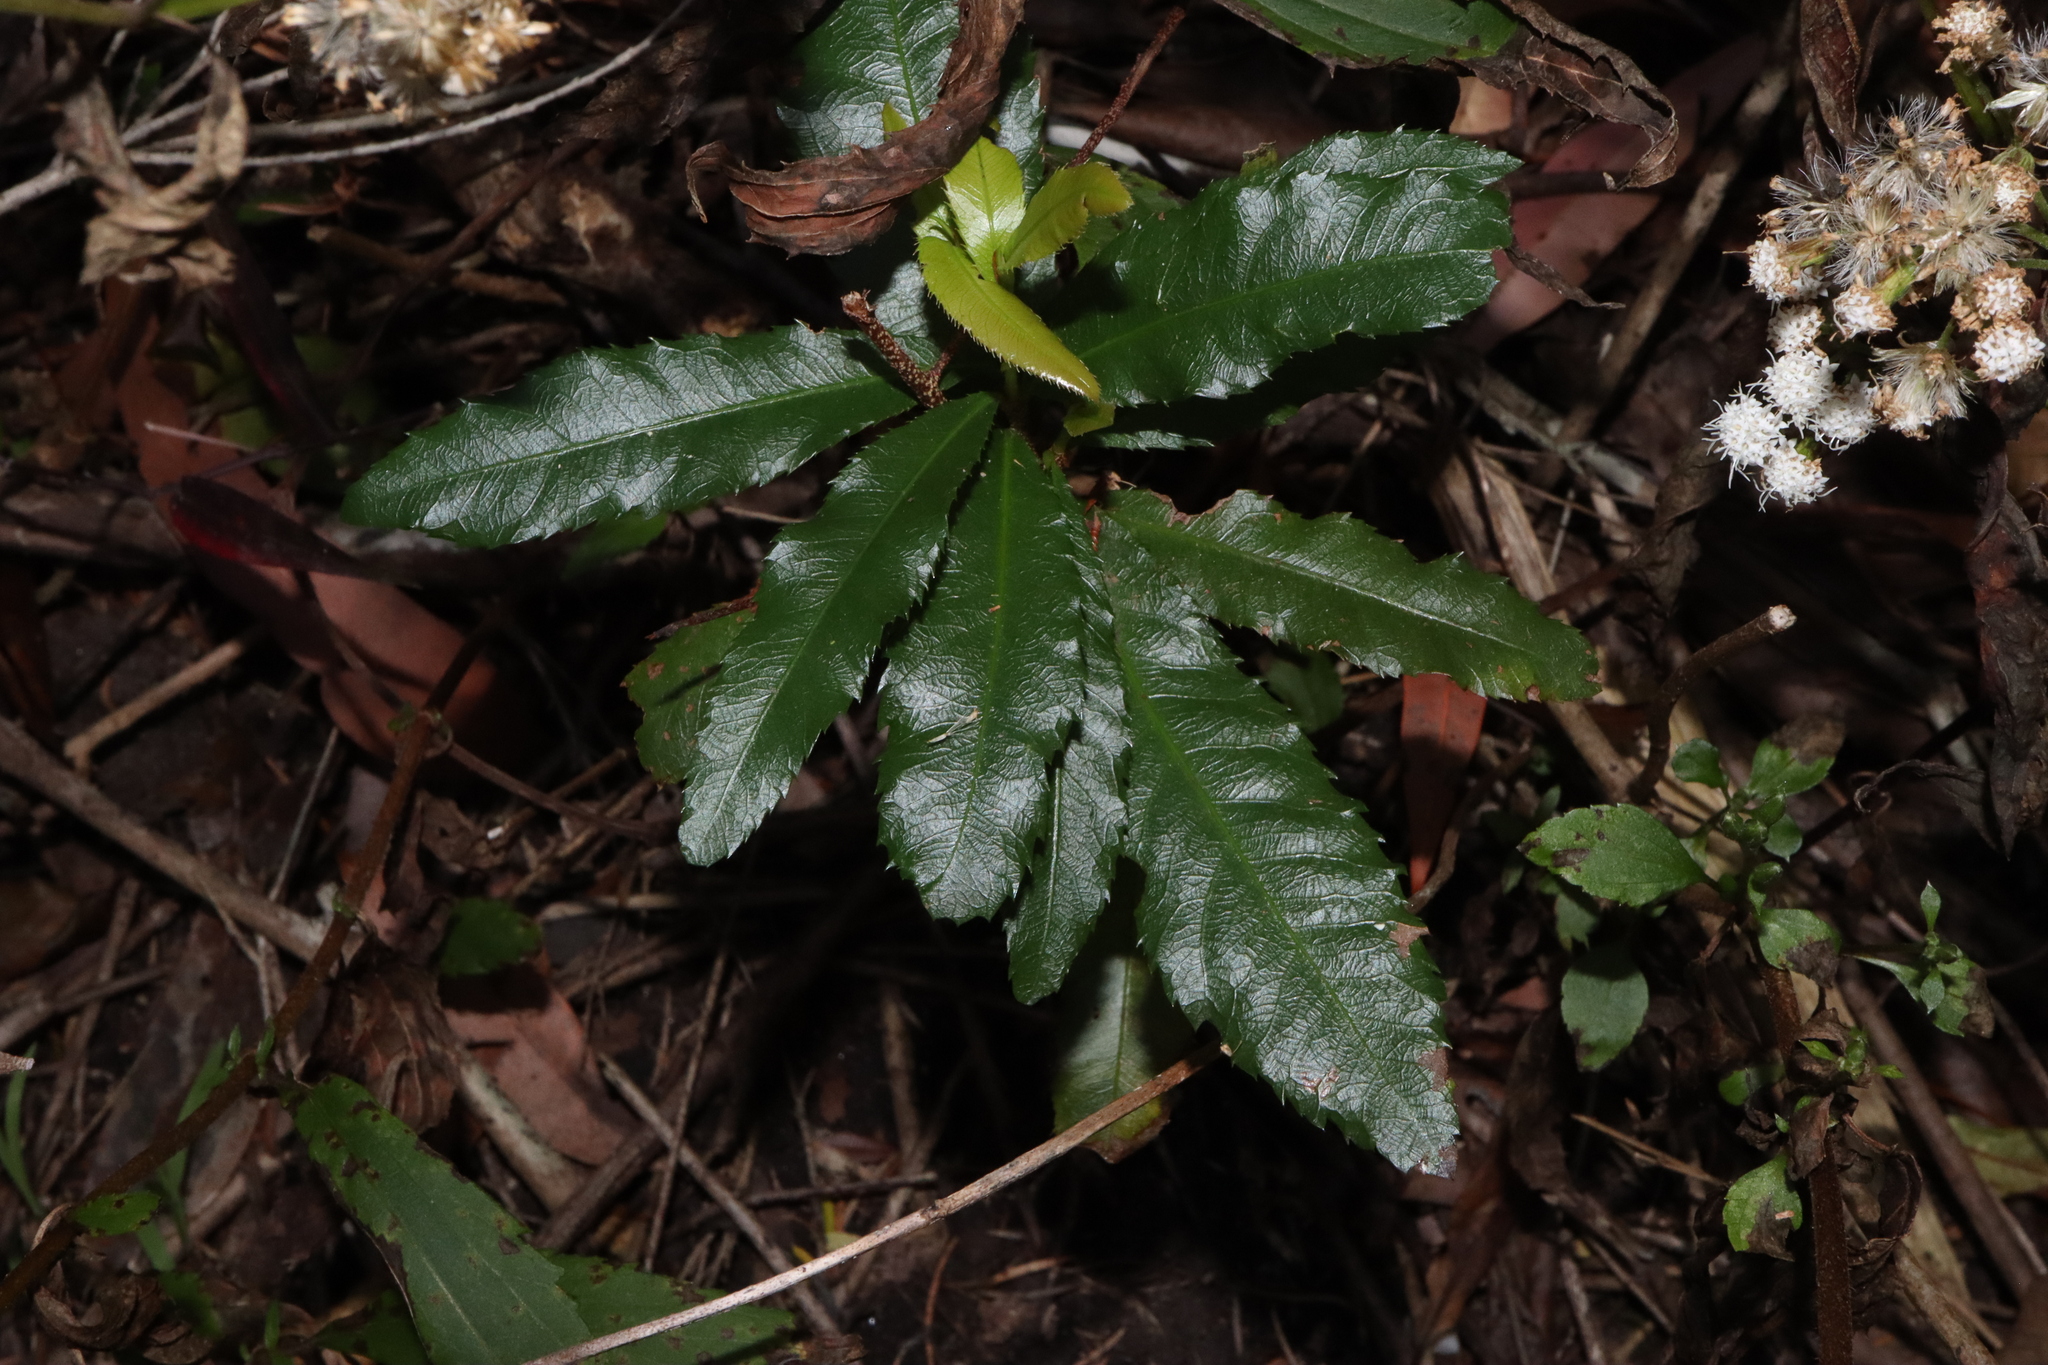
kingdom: Plantae
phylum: Tracheophyta
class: Magnoliopsida
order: Malpighiales
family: Ochnaceae
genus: Ochna
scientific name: Ochna serrulata
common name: Mickey mouse plant
